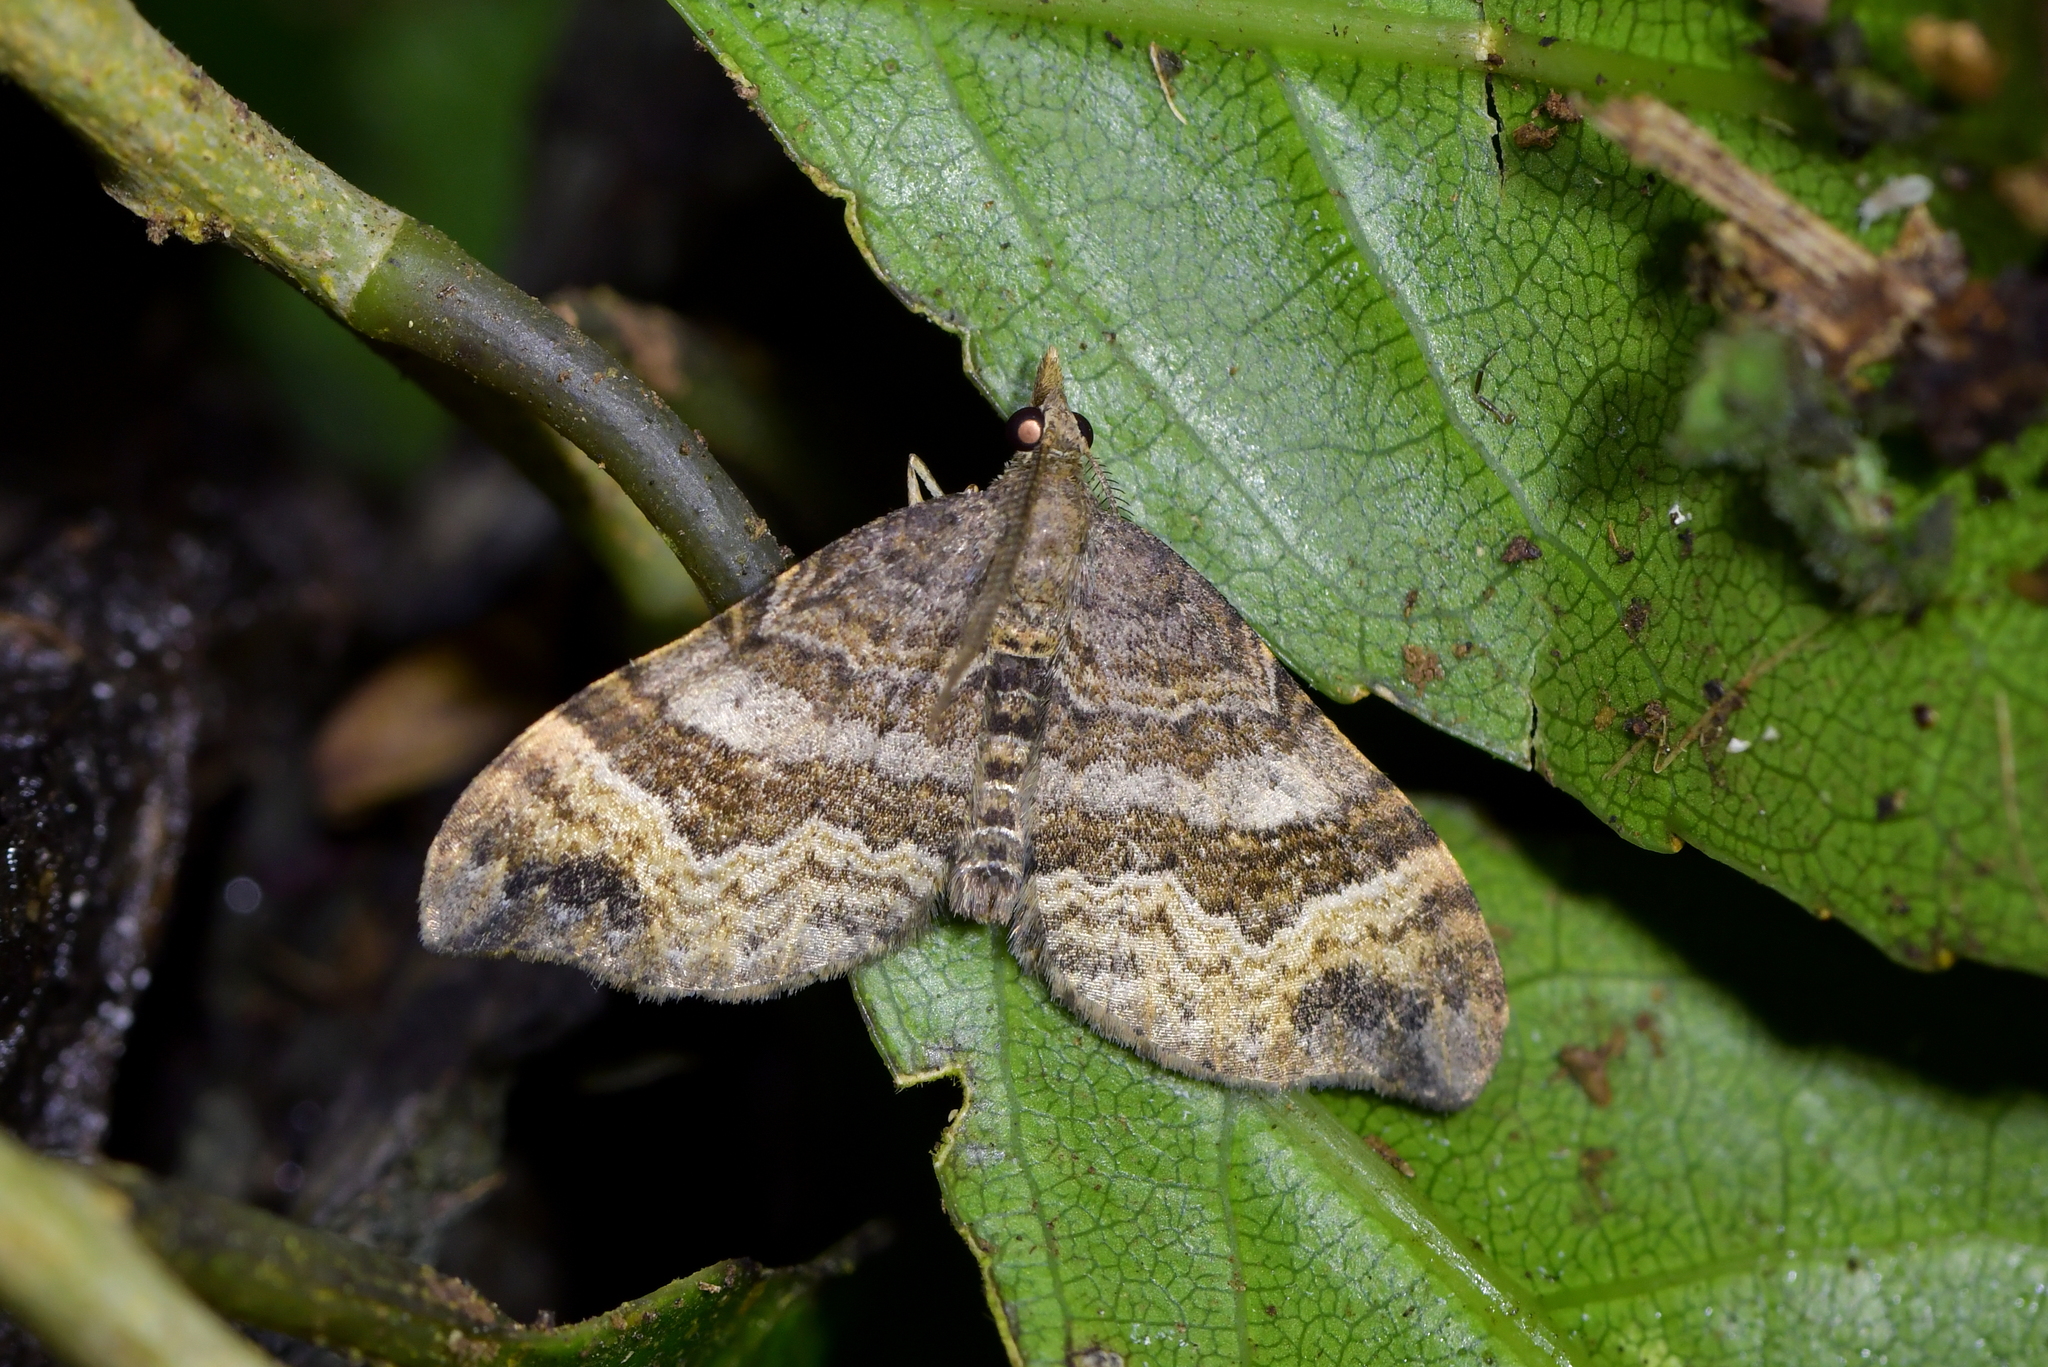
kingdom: Animalia
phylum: Arthropoda
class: Insecta
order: Lepidoptera
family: Geometridae
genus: Homodotis
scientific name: Homodotis megaspilata
